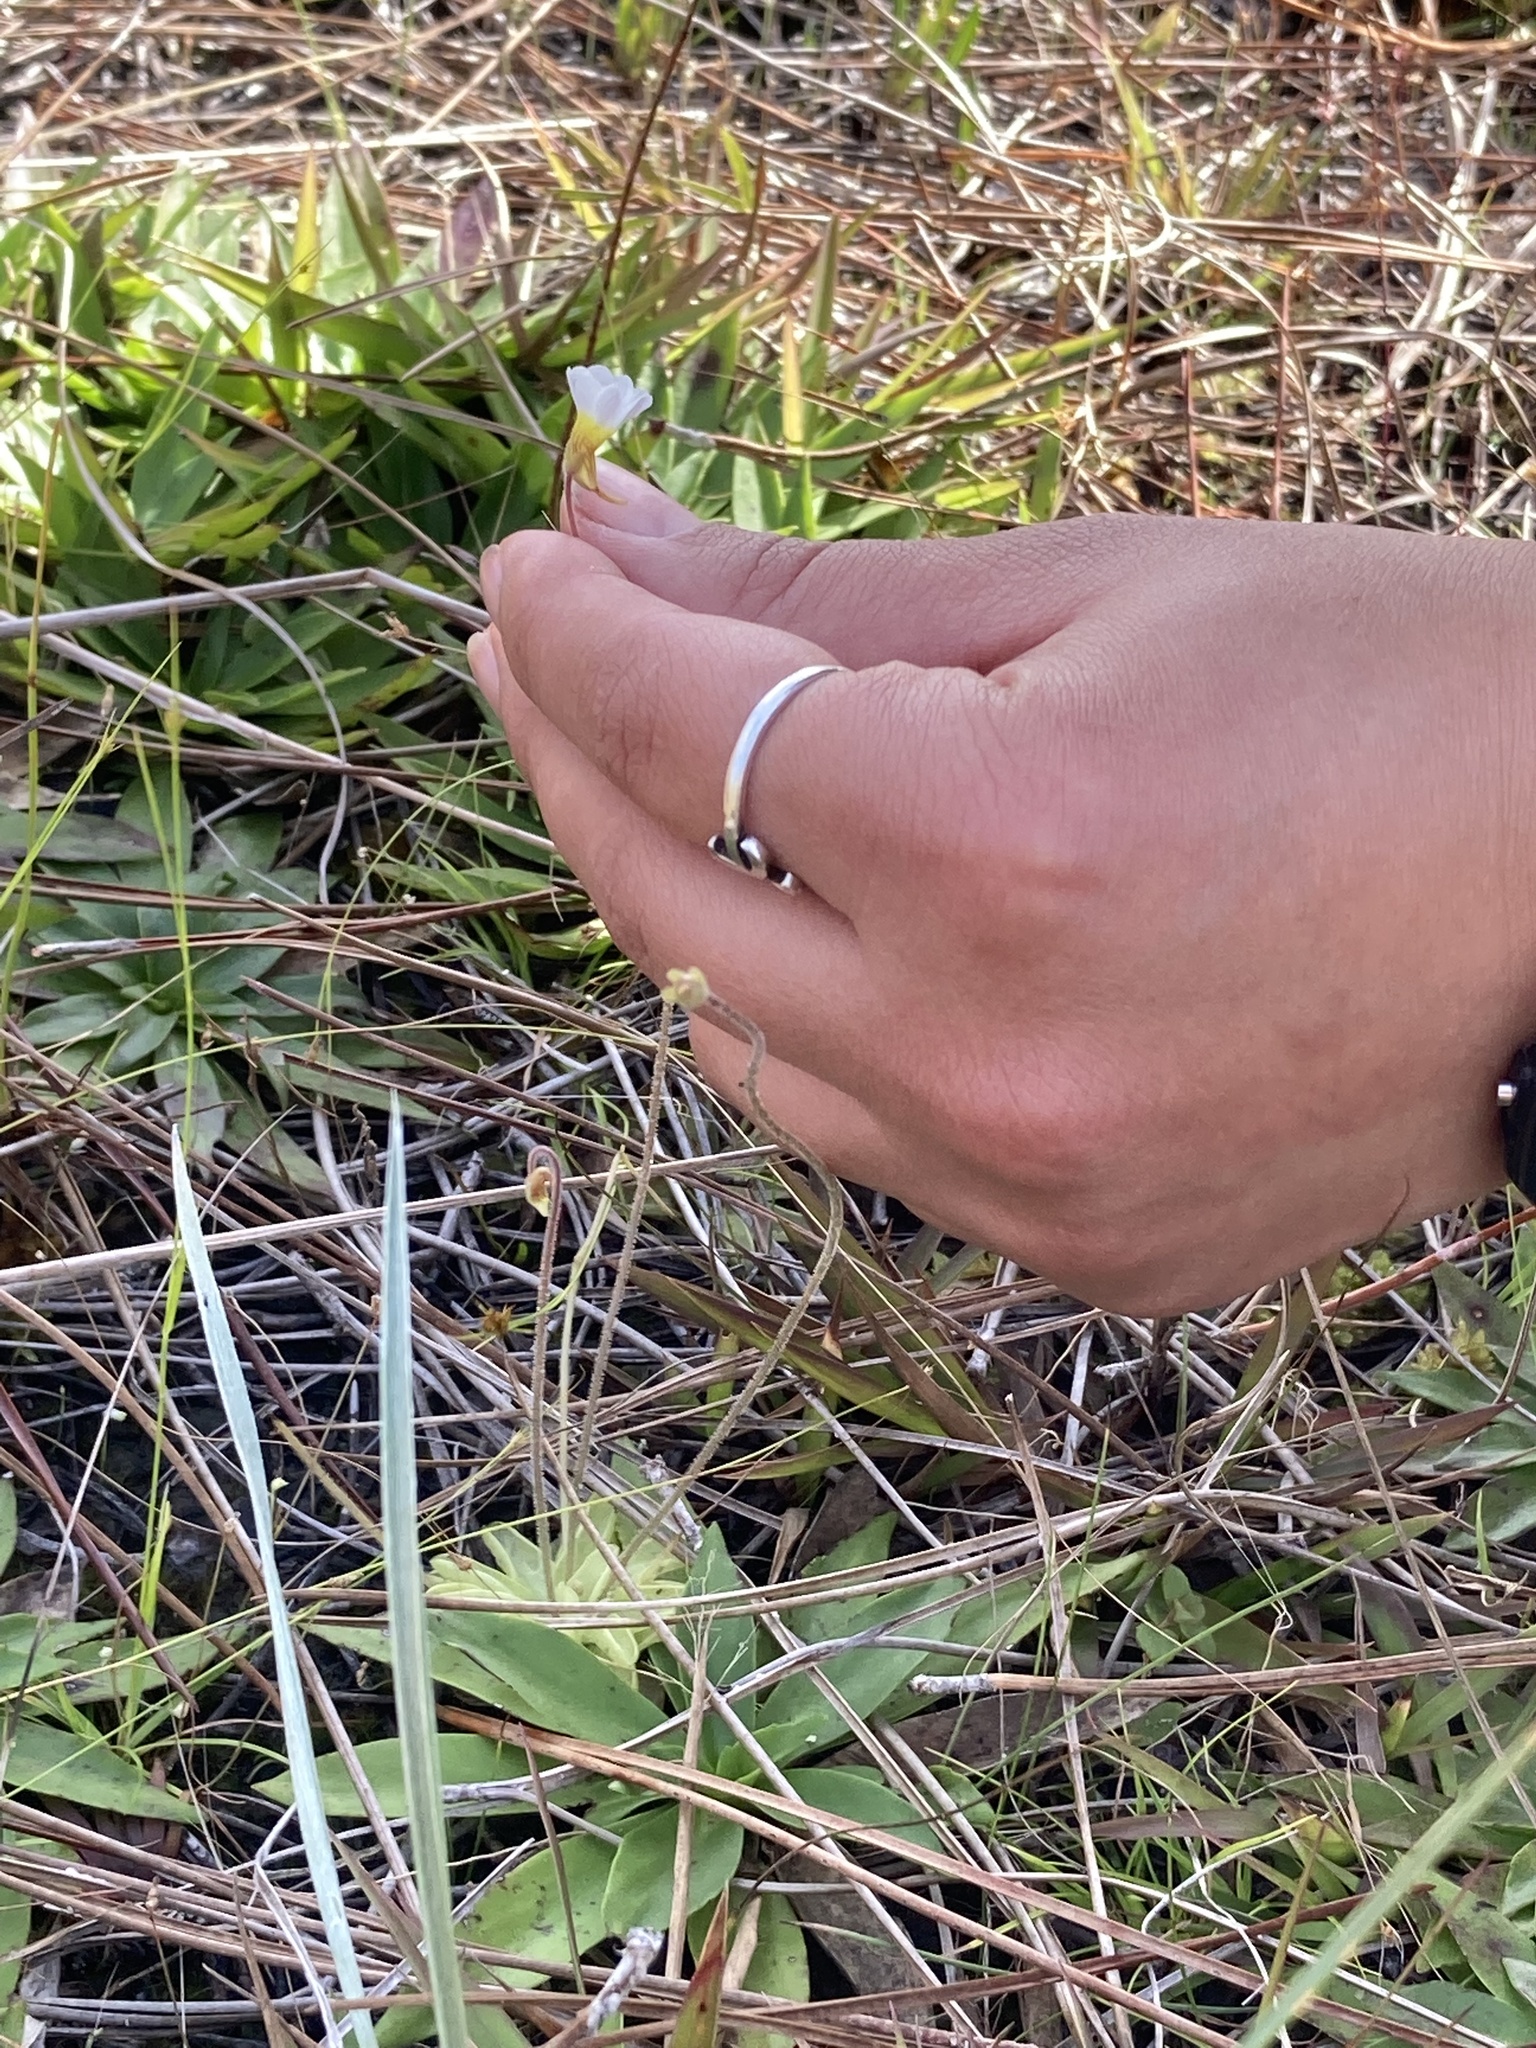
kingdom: Plantae
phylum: Tracheophyta
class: Magnoliopsida
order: Lamiales
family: Lentibulariaceae
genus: Pinguicula
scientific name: Pinguicula pumila
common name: Small butterwort
